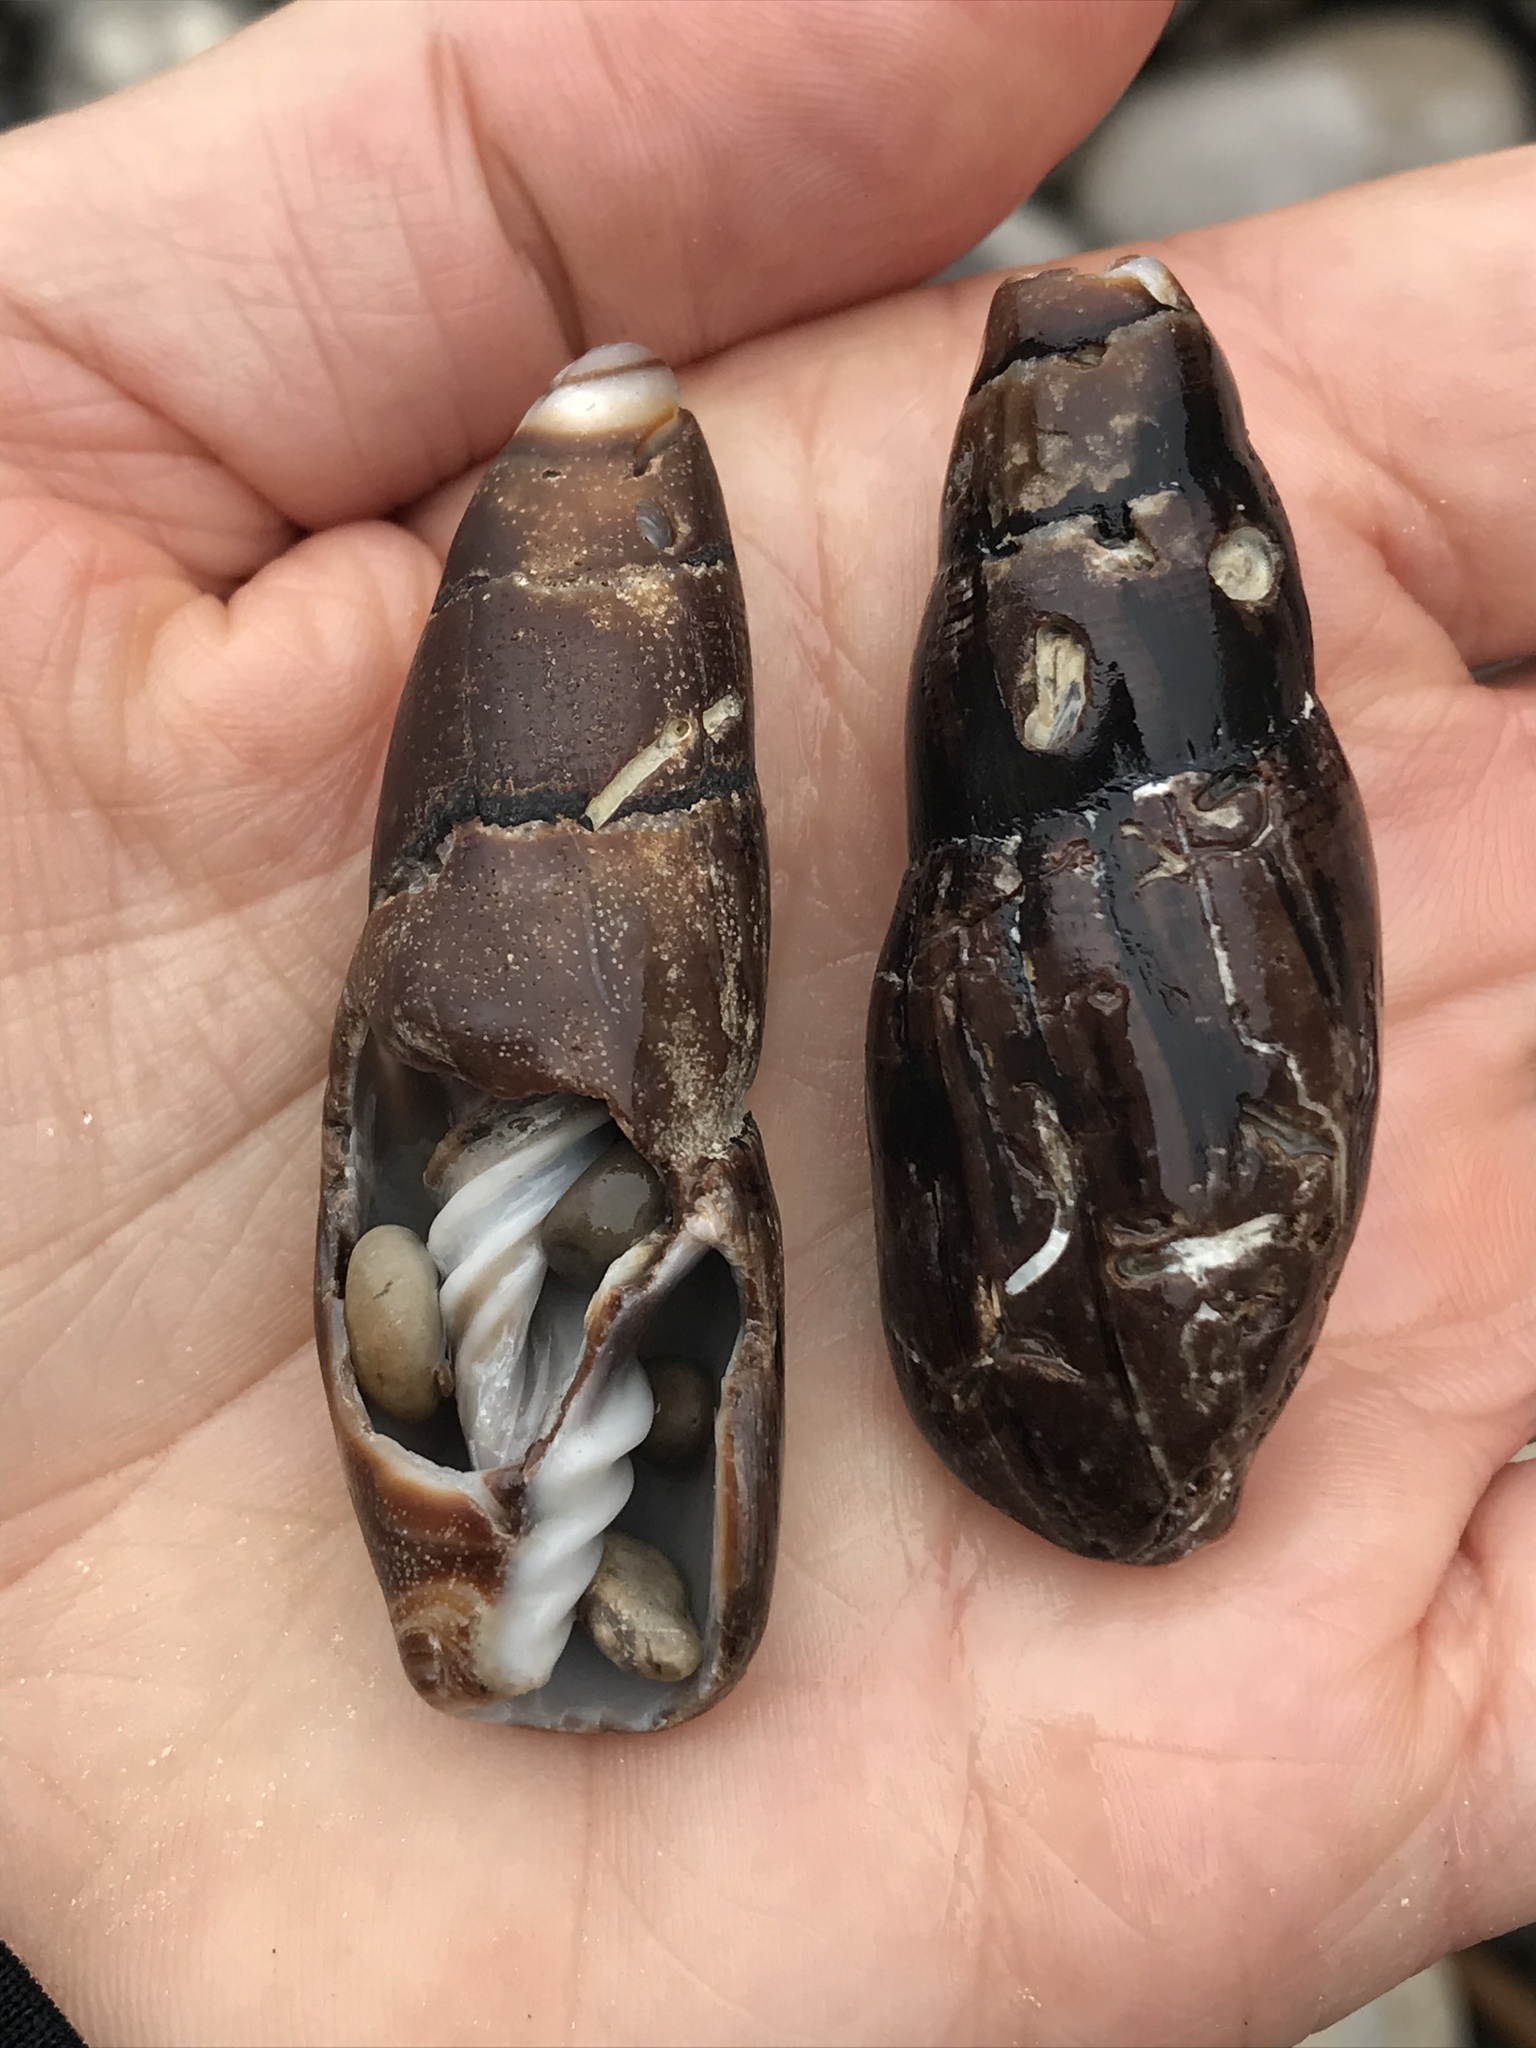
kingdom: Animalia
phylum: Mollusca
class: Gastropoda
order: Neogastropoda
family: Mitridae
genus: Atrimitra
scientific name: Atrimitra idae
